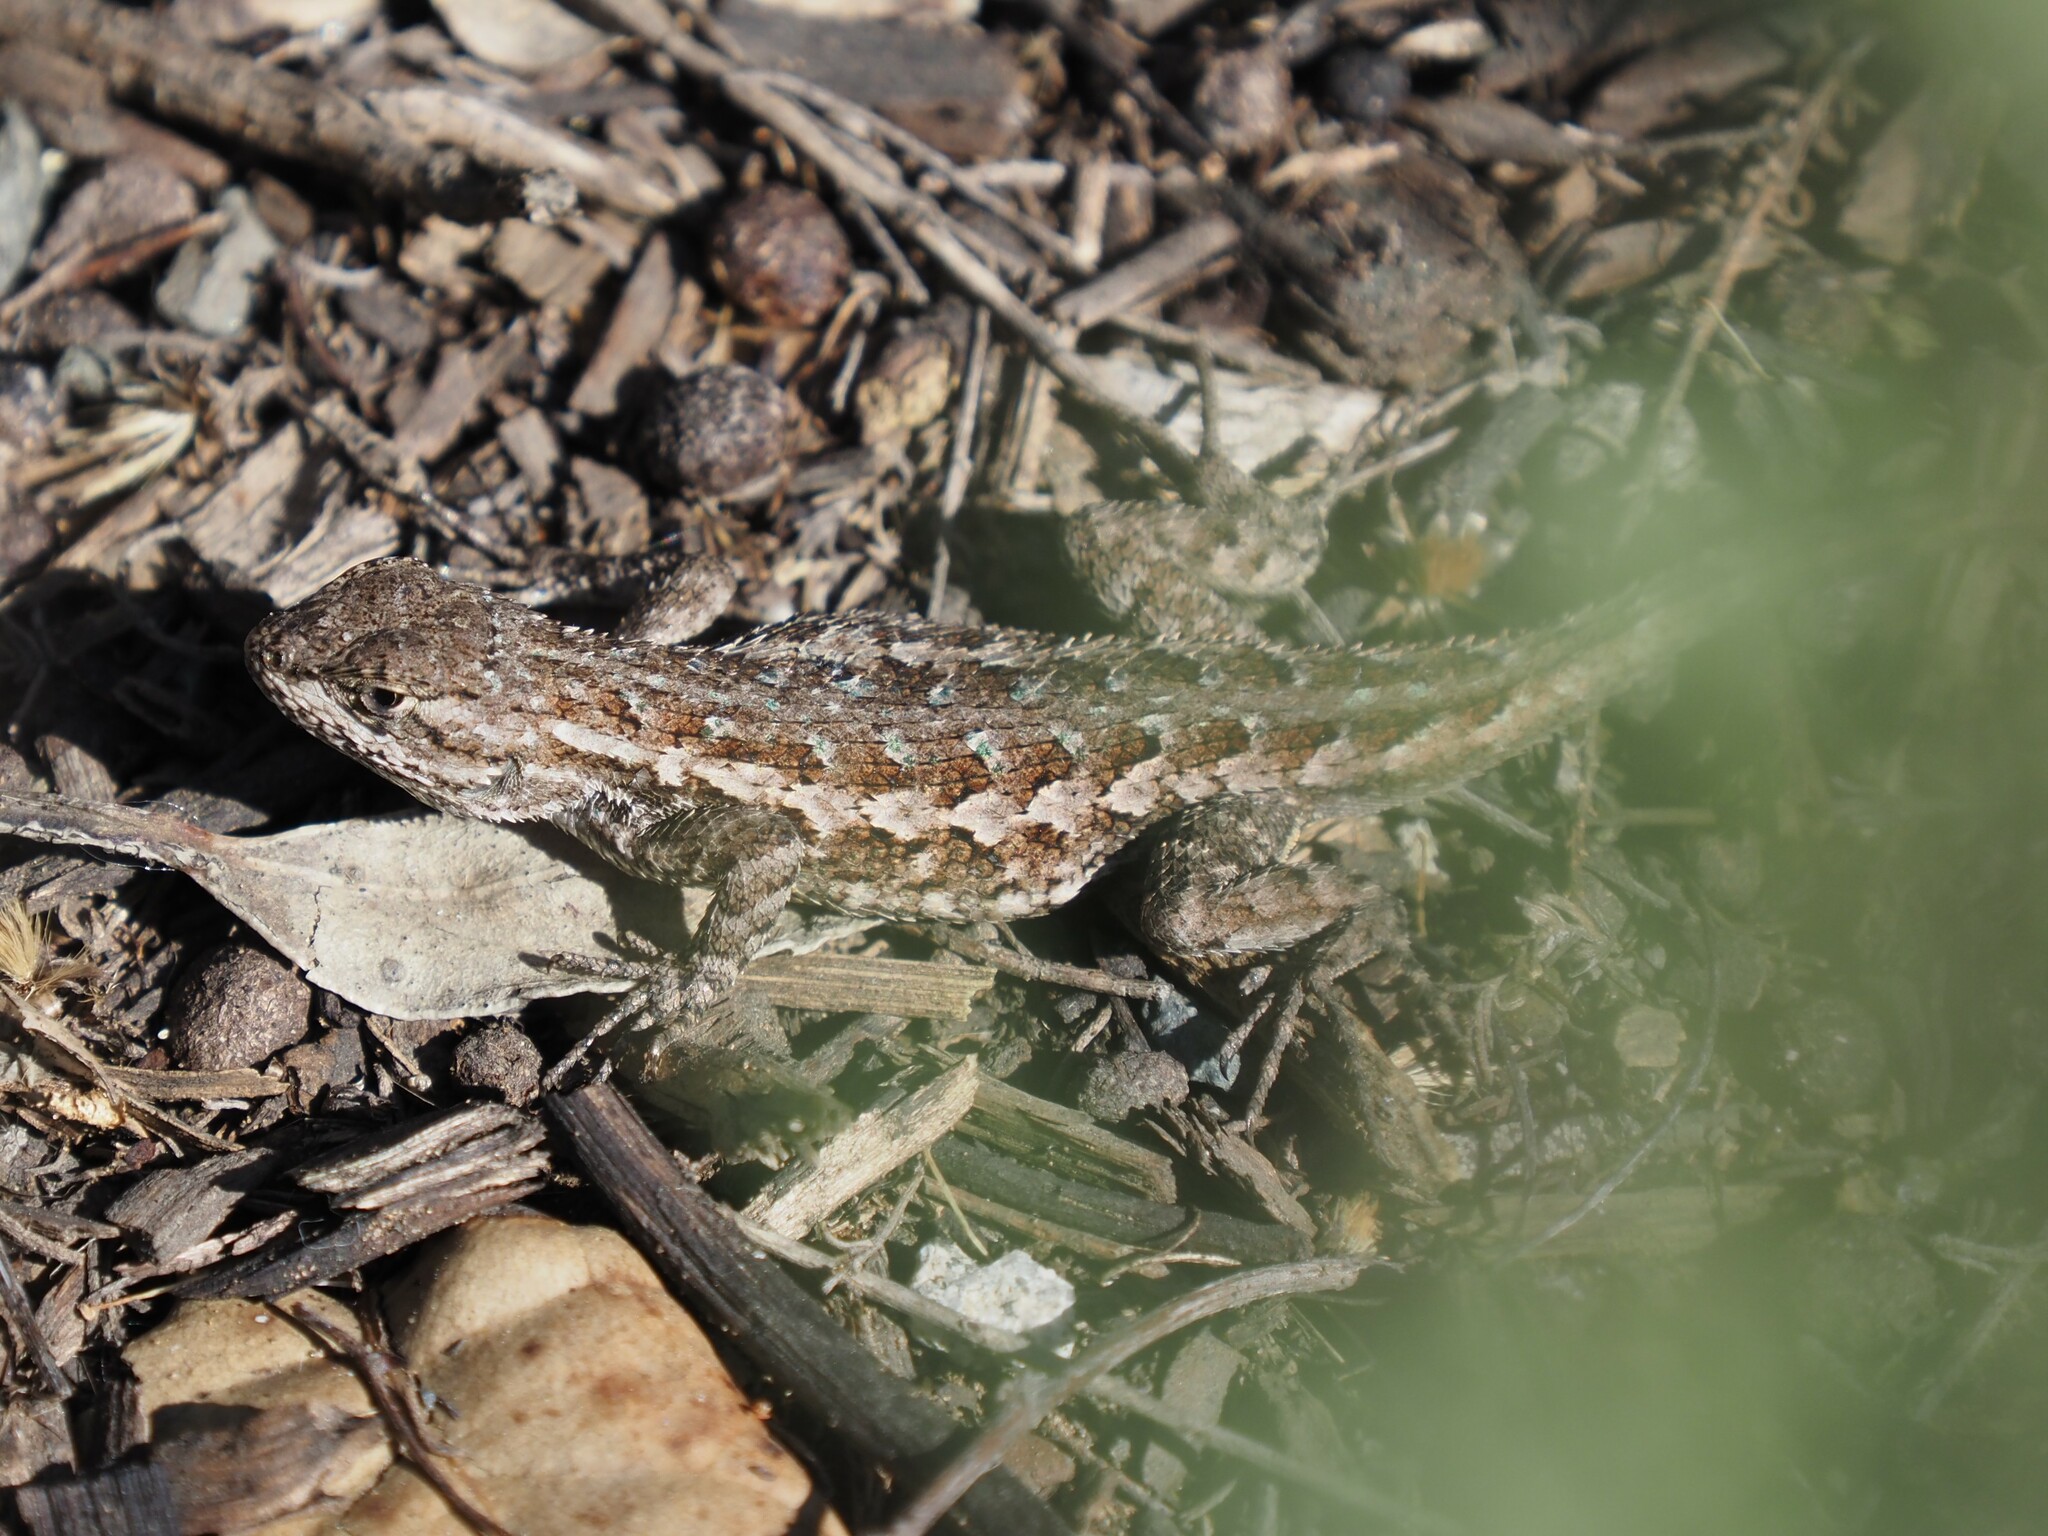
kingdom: Animalia
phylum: Chordata
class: Squamata
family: Phrynosomatidae
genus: Sceloporus
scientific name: Sceloporus occidentalis
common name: Western fence lizard
